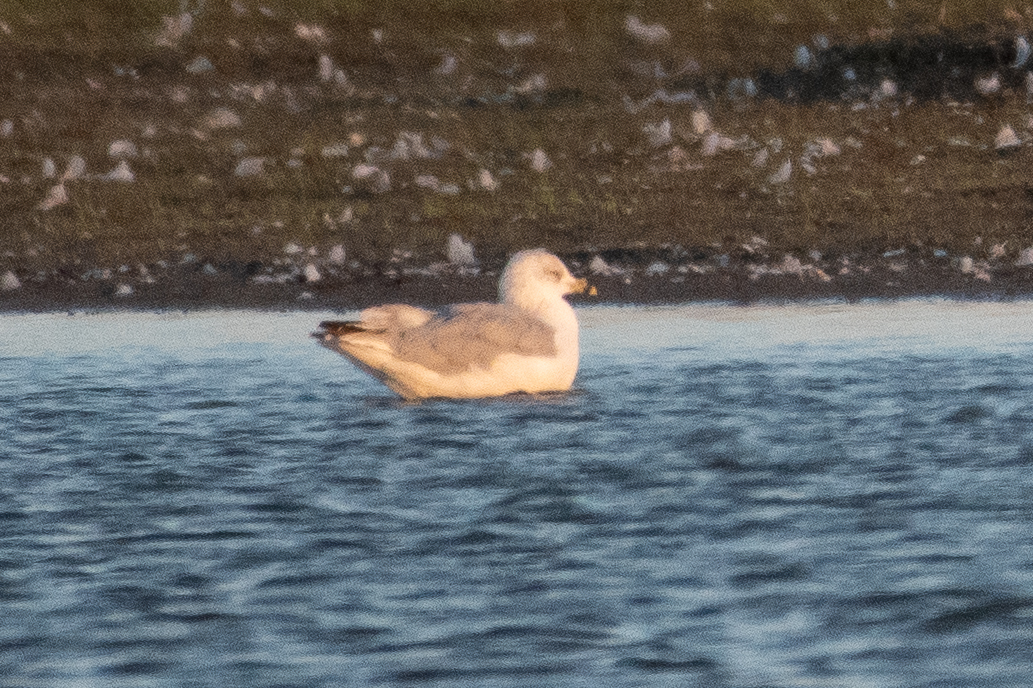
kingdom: Animalia
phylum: Chordata
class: Aves
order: Charadriiformes
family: Laridae
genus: Larus
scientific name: Larus delawarensis
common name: Ring-billed gull
